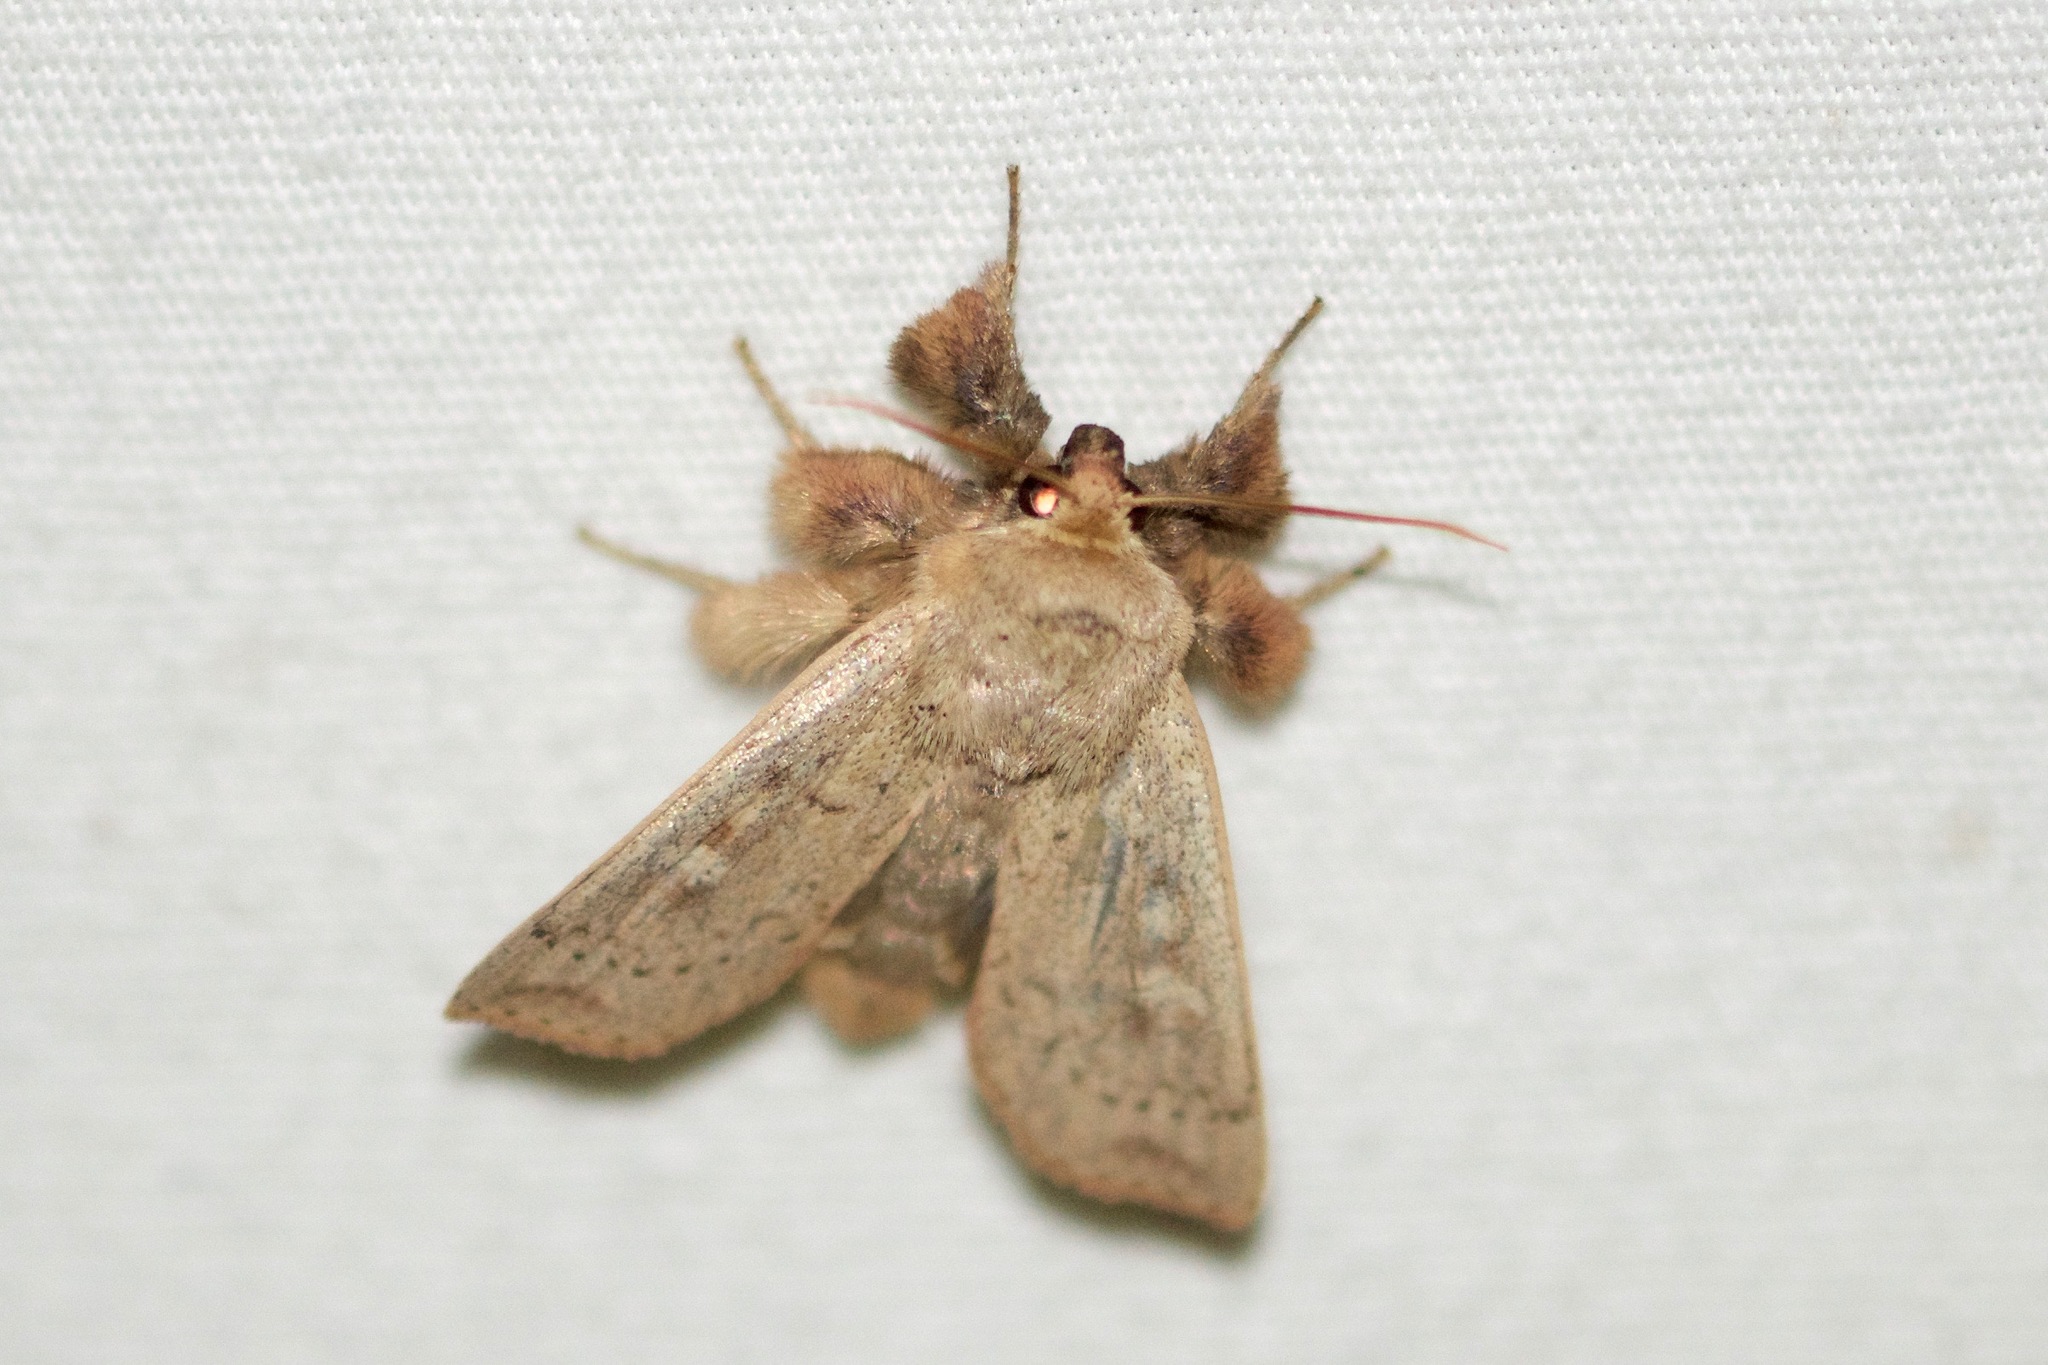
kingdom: Animalia
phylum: Arthropoda
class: Insecta
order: Lepidoptera
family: Noctuidae
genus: Leucania
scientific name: Leucania pseudargyria
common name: False wainscot
